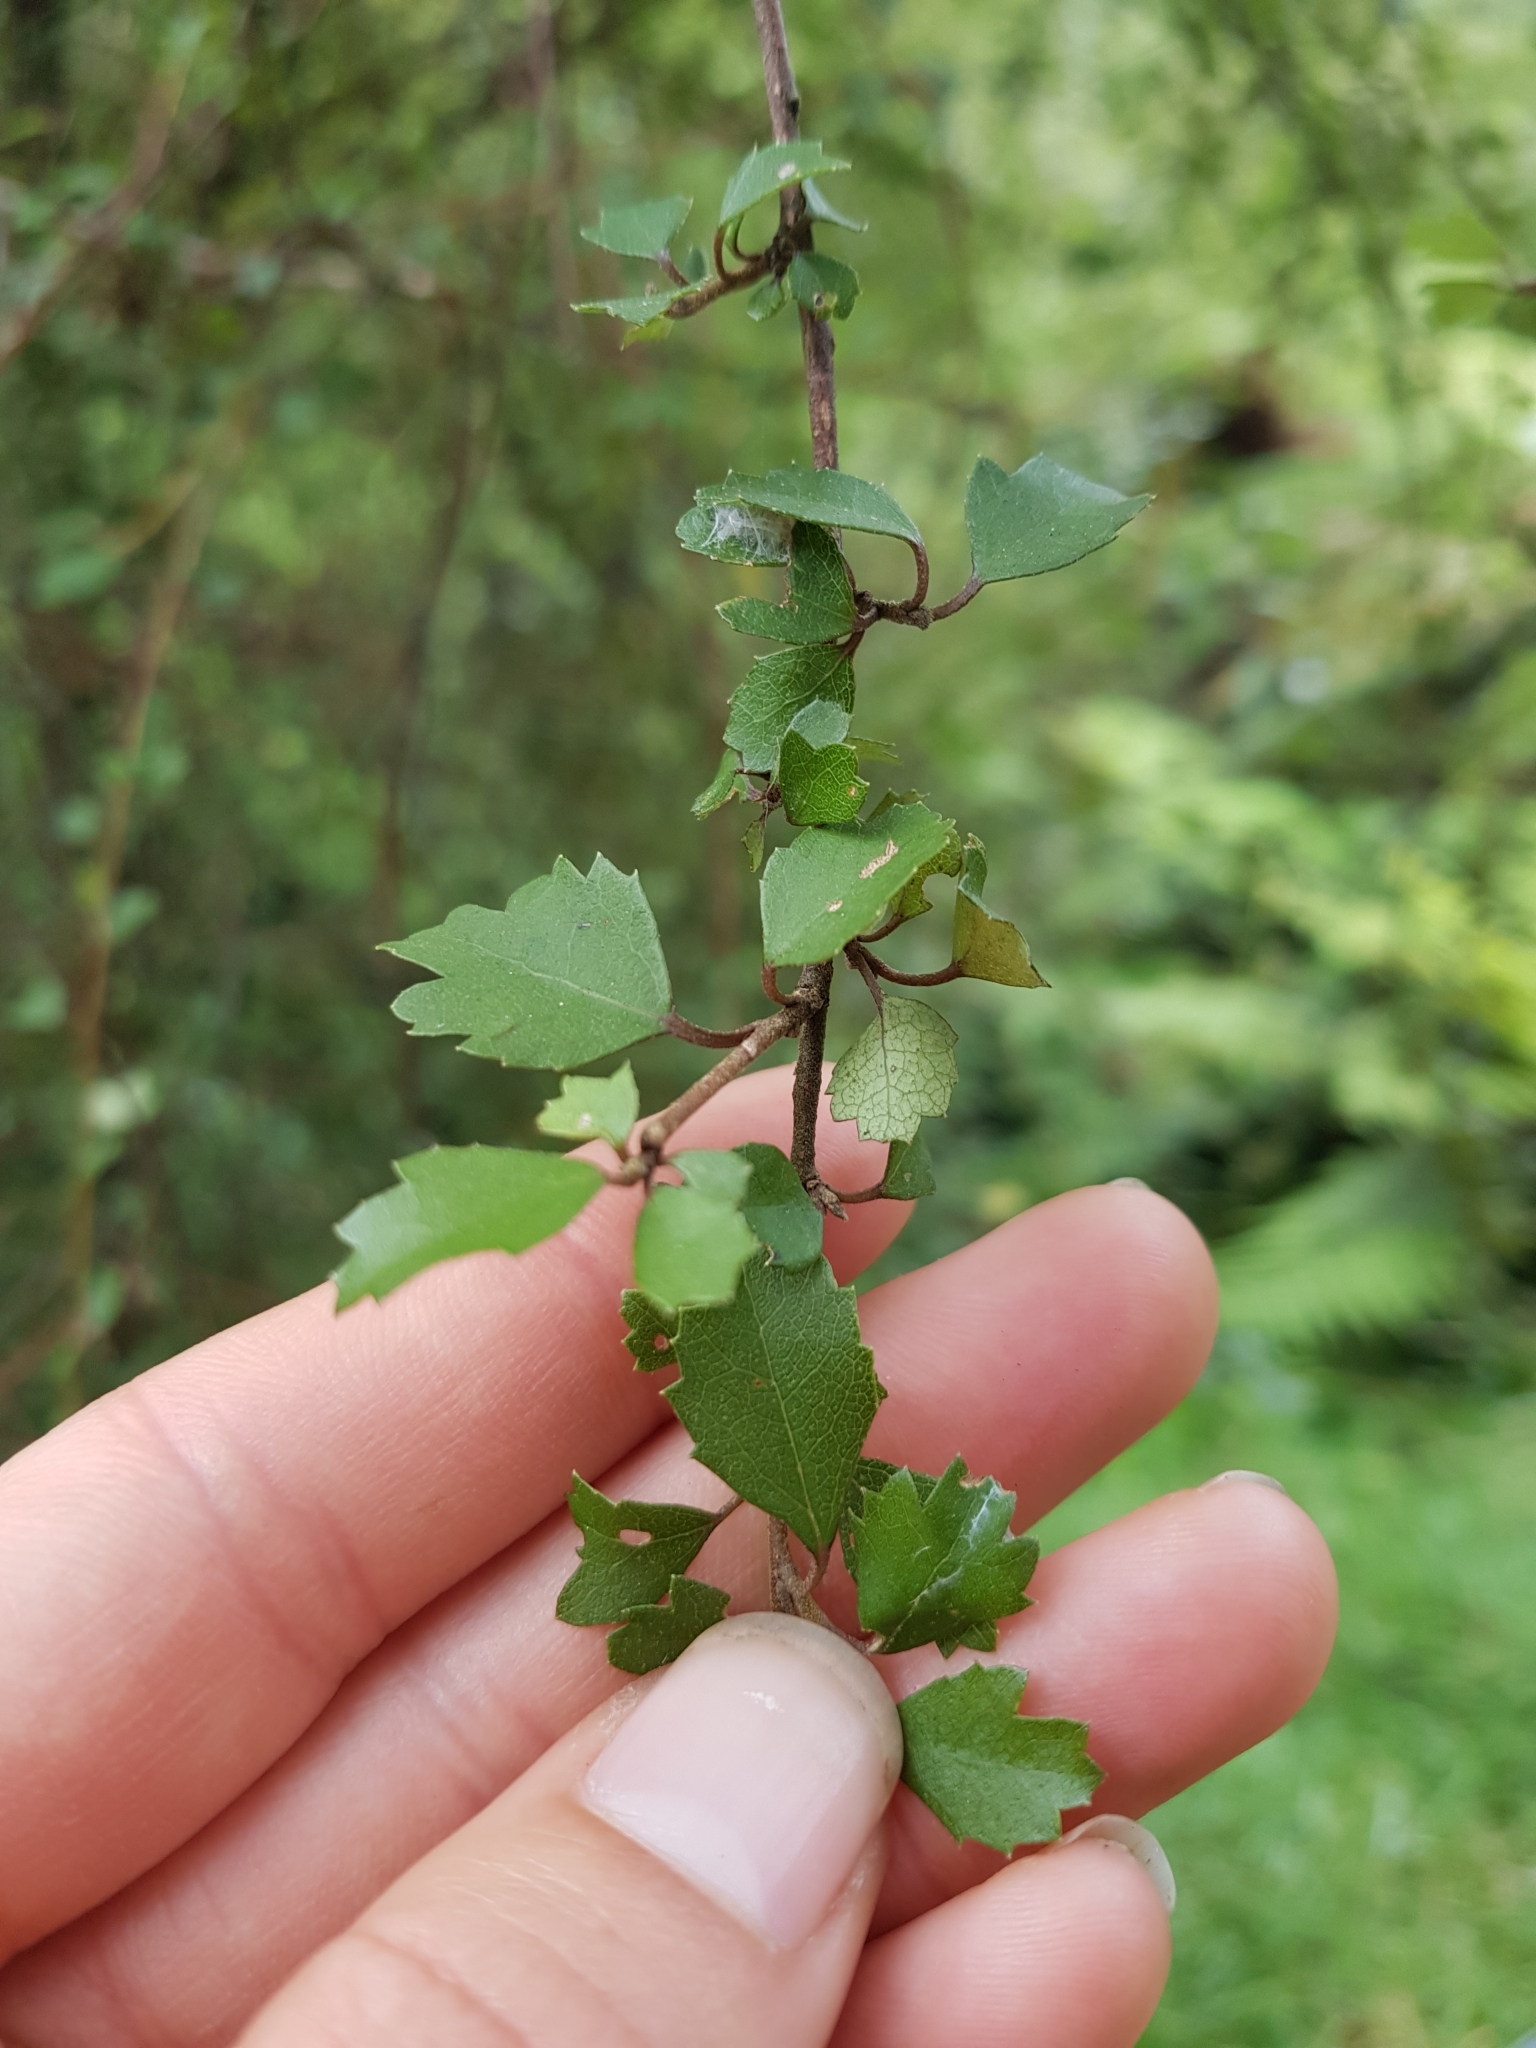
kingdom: Plantae
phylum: Tracheophyta
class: Magnoliopsida
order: Malvales
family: Malvaceae
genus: Hoheria
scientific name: Hoheria sexstylosa
